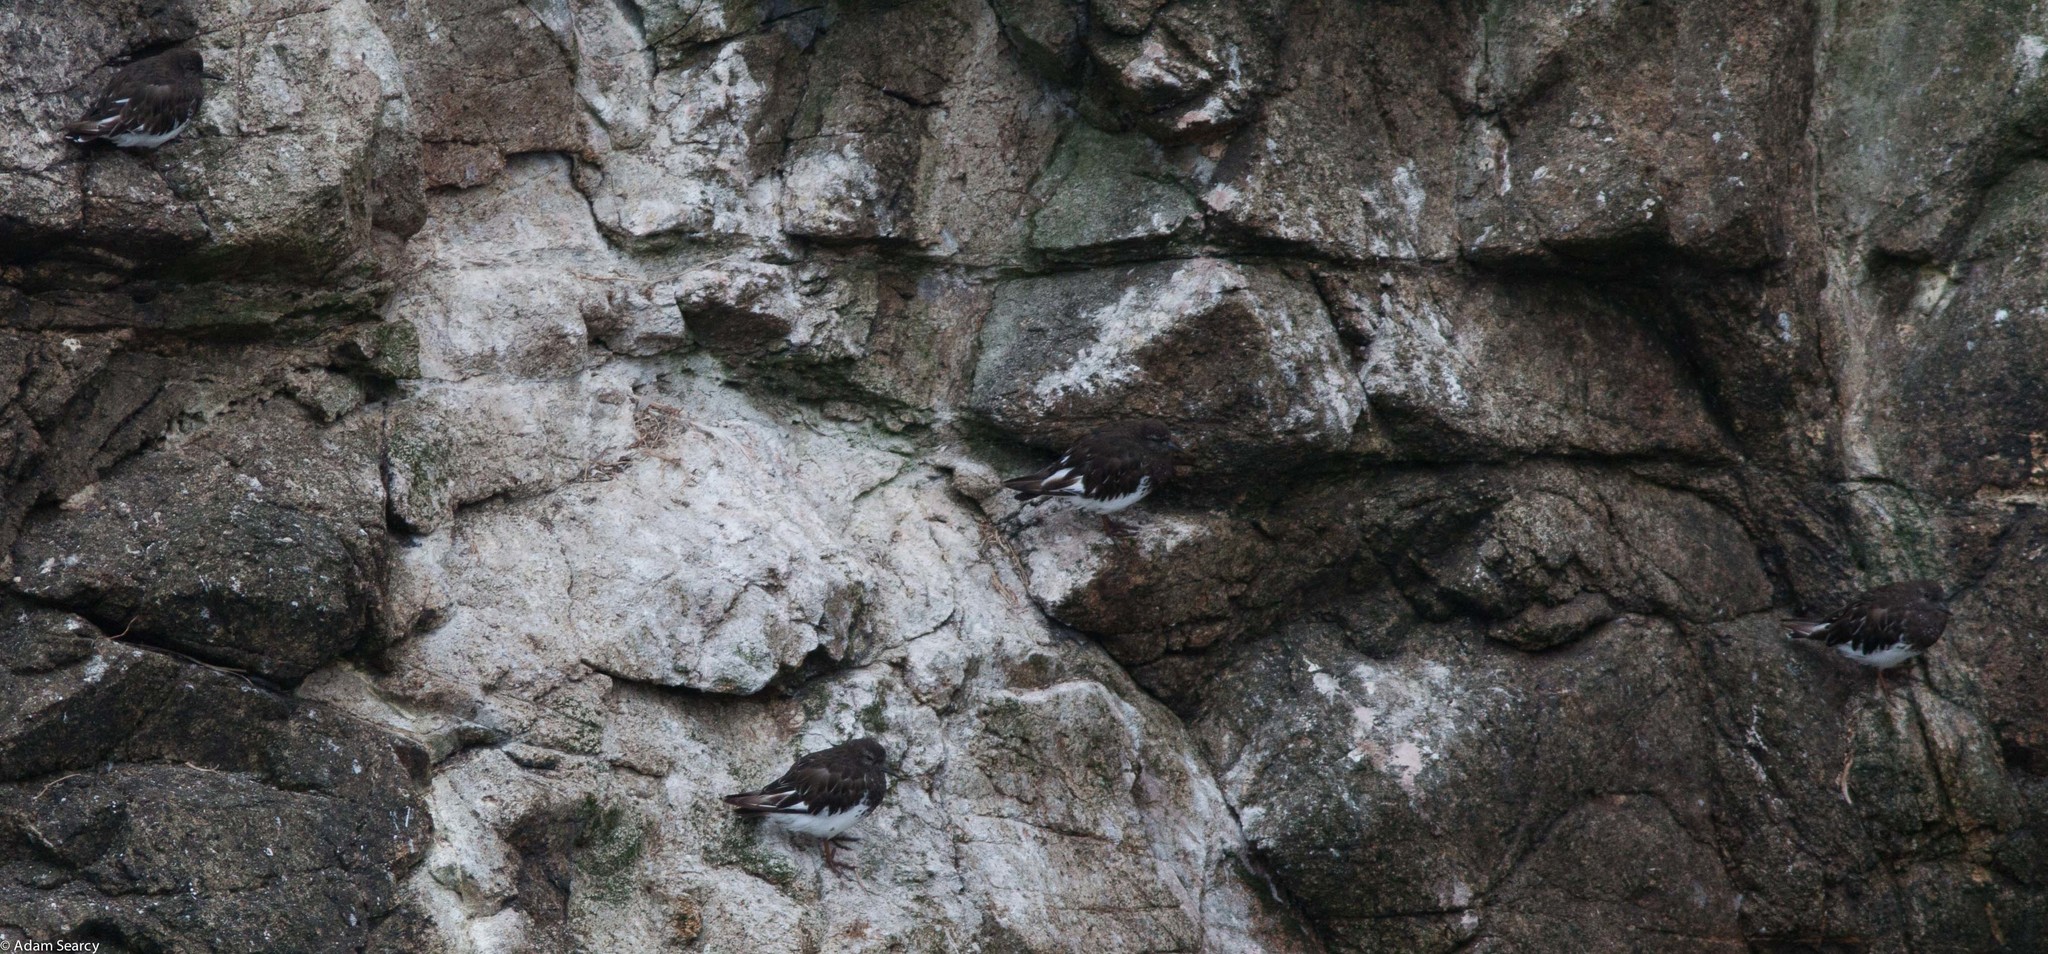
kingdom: Animalia
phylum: Chordata
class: Aves
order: Charadriiformes
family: Scolopacidae
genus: Arenaria
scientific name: Arenaria melanocephala
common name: Black turnstone
